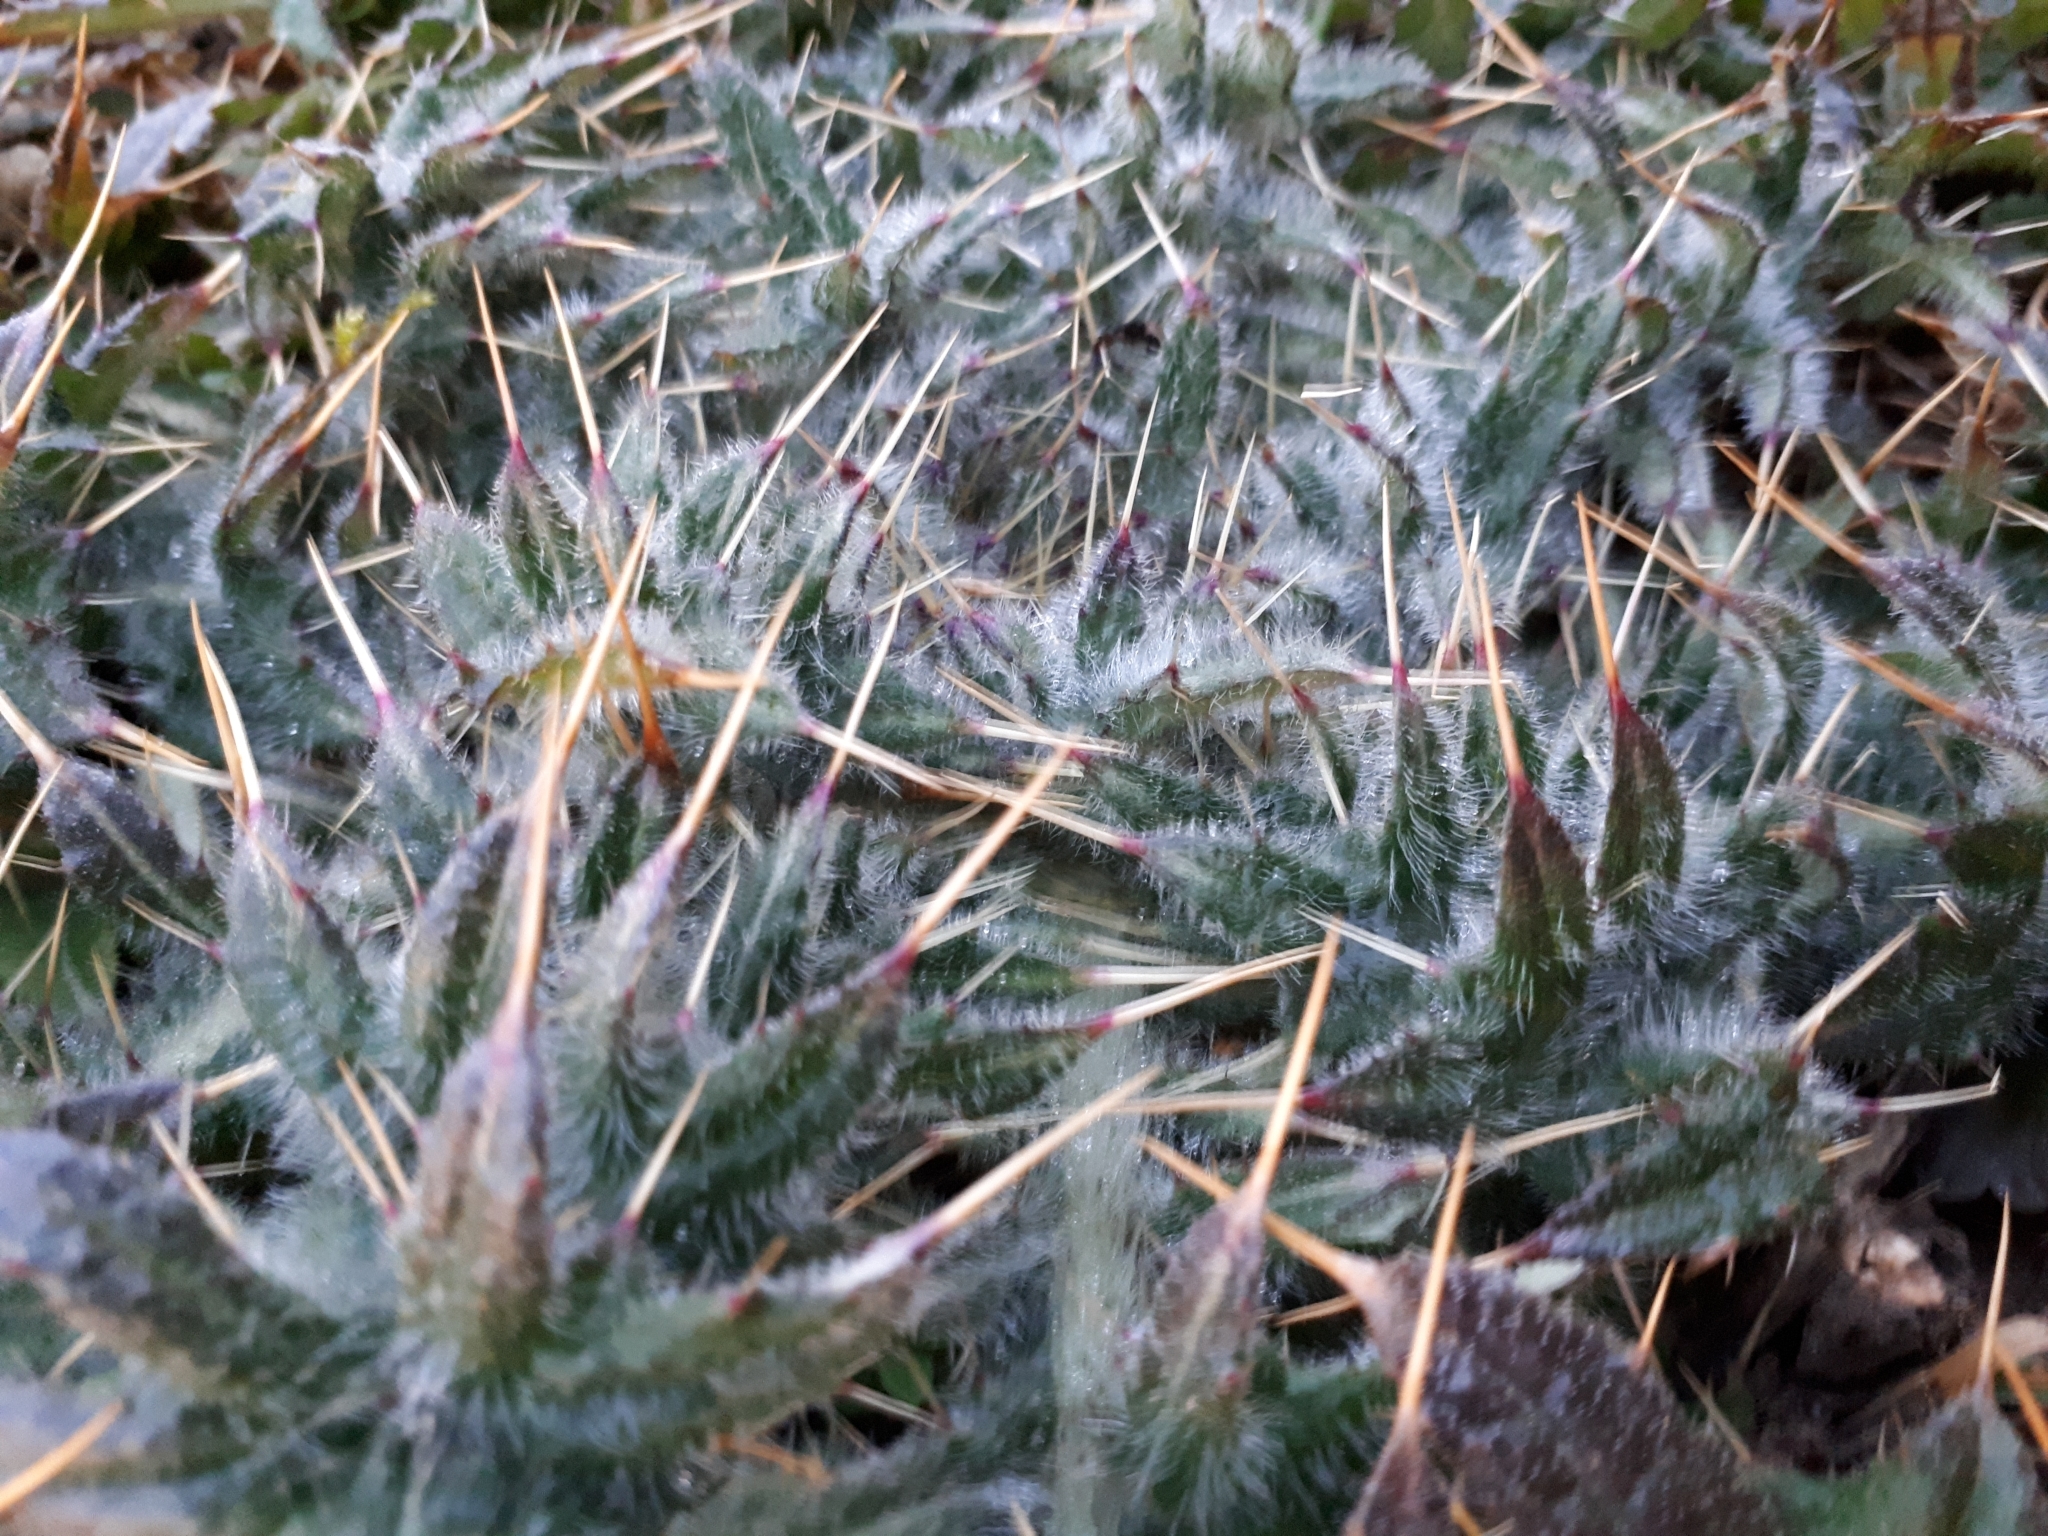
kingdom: Plantae
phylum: Tracheophyta
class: Magnoliopsida
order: Asterales
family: Asteraceae
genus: Cirsium
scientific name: Cirsium vulgare
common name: Bull thistle
